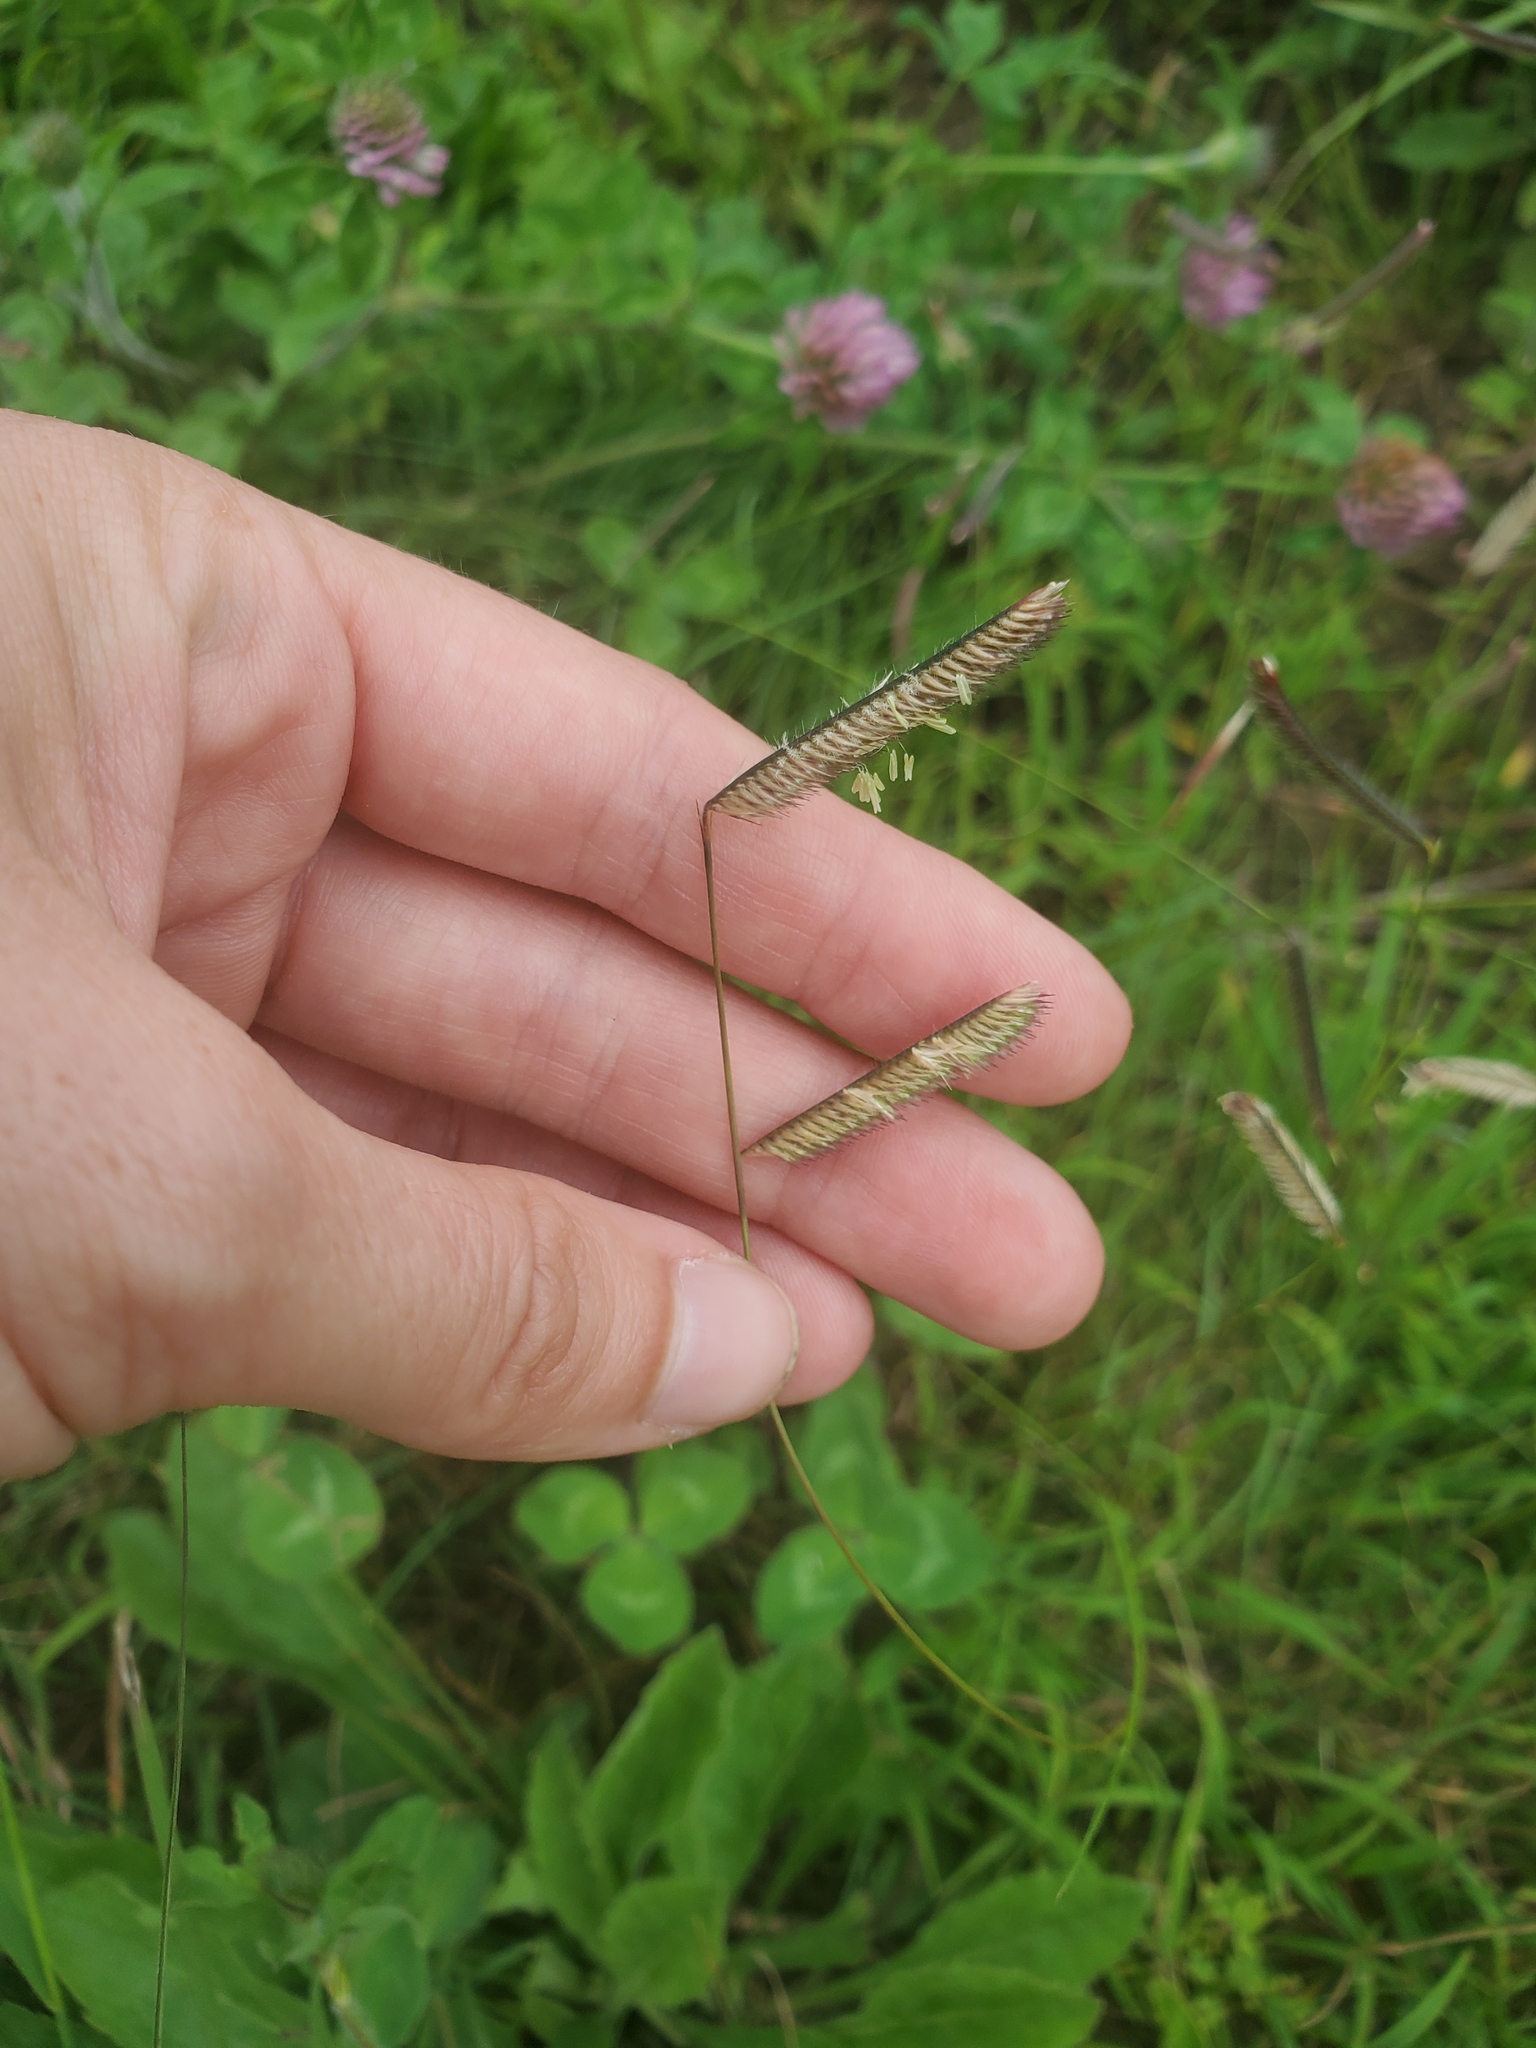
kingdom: Plantae
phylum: Tracheophyta
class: Liliopsida
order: Poales
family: Poaceae
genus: Bouteloua
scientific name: Bouteloua gracilis
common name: Blue grama
